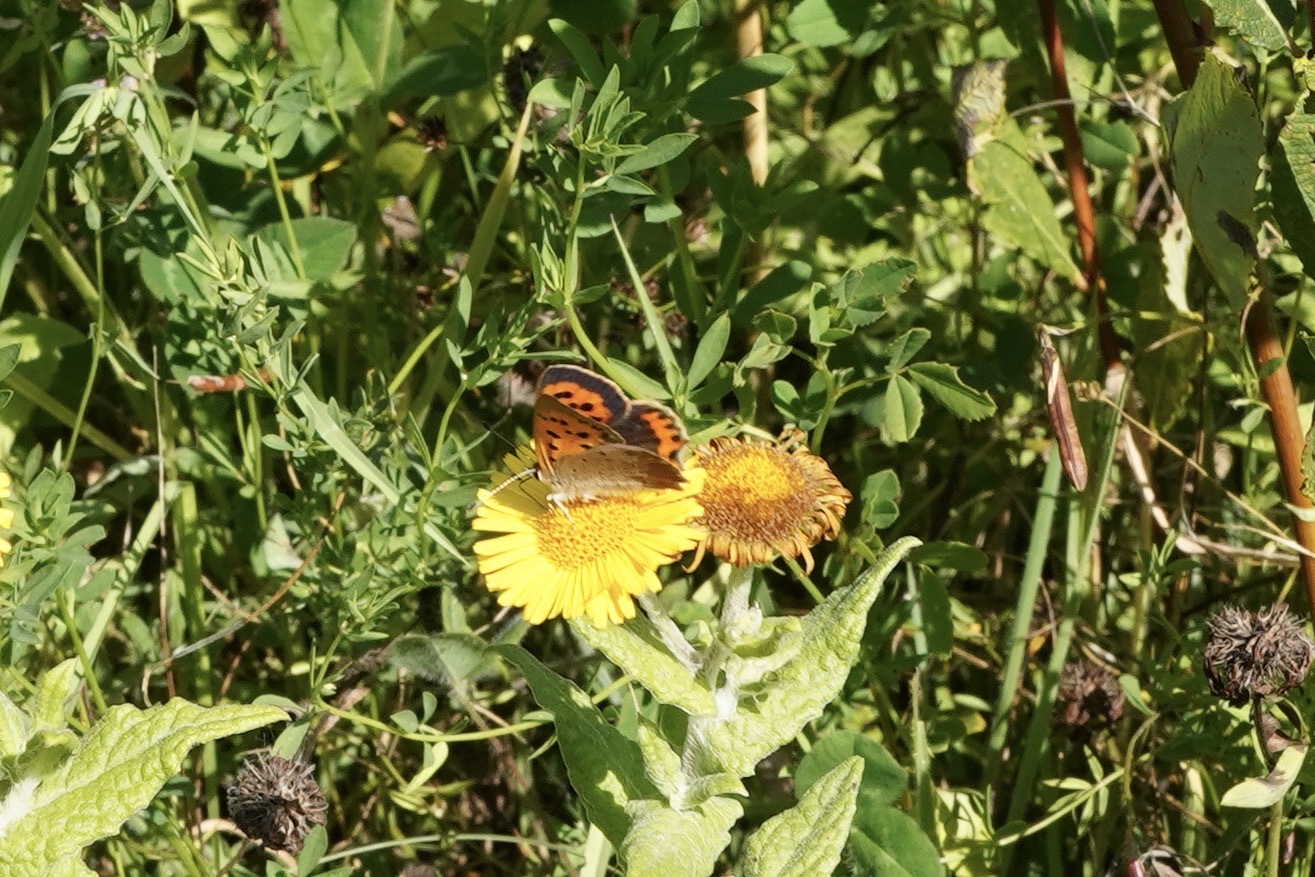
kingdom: Animalia
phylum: Arthropoda
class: Insecta
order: Lepidoptera
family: Lycaenidae
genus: Lycaena
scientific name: Lycaena phlaeas
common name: Small copper
